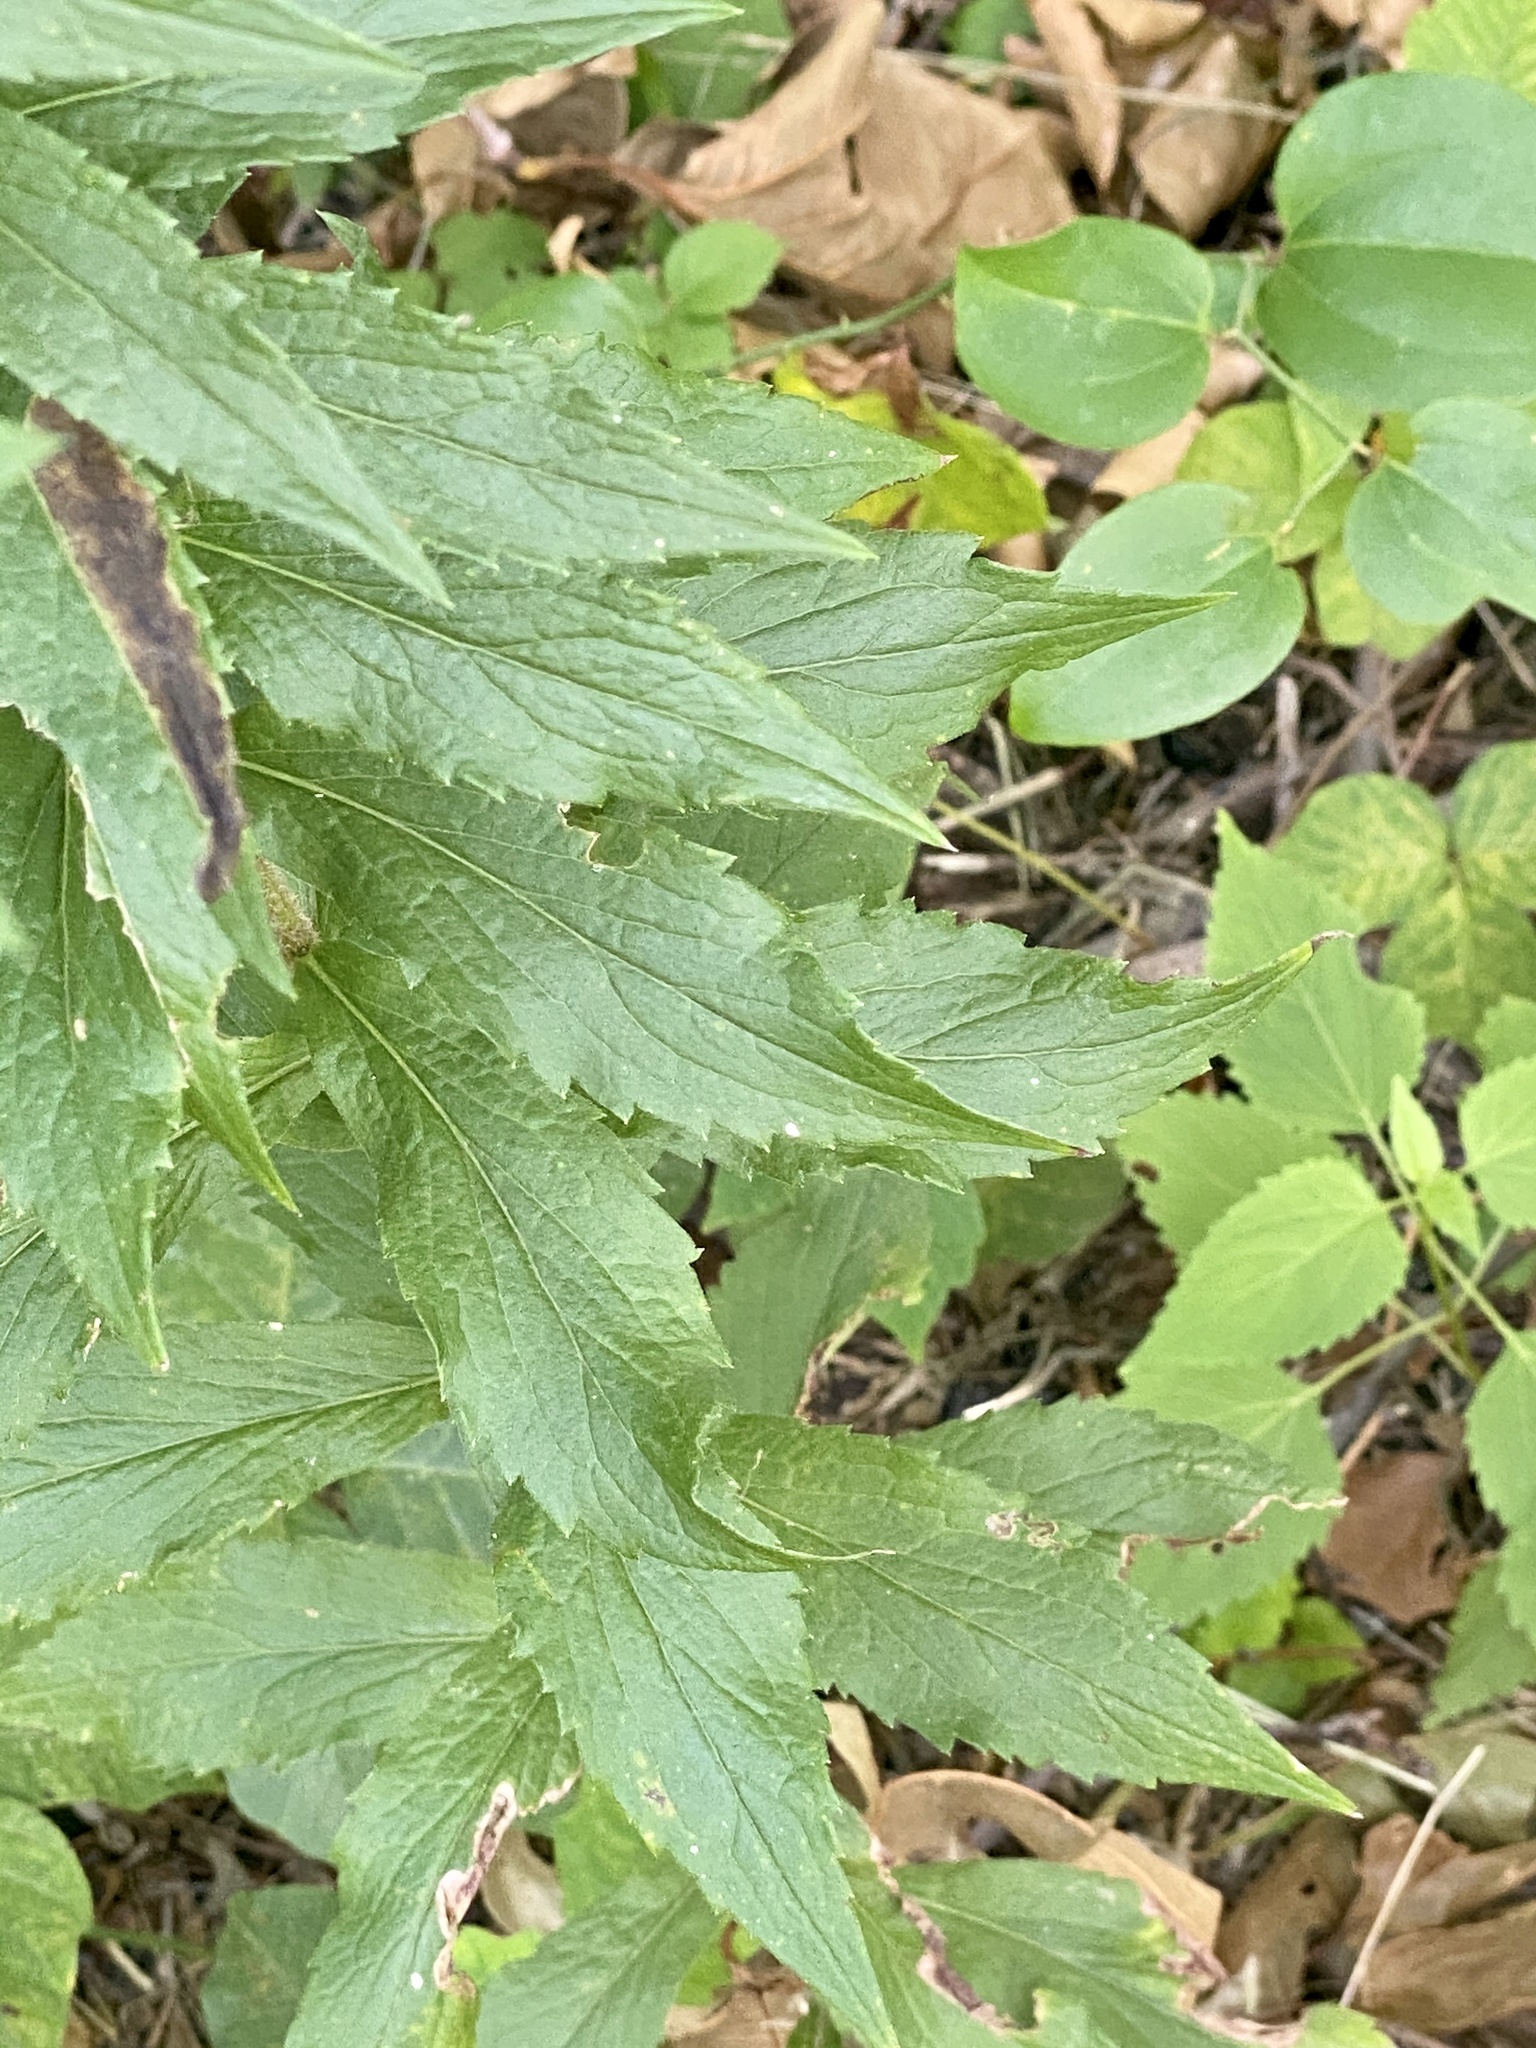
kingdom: Plantae
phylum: Tracheophyta
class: Magnoliopsida
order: Asterales
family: Asteraceae
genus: Solidago
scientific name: Solidago rugosa
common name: Rough-stemmed goldenrod
